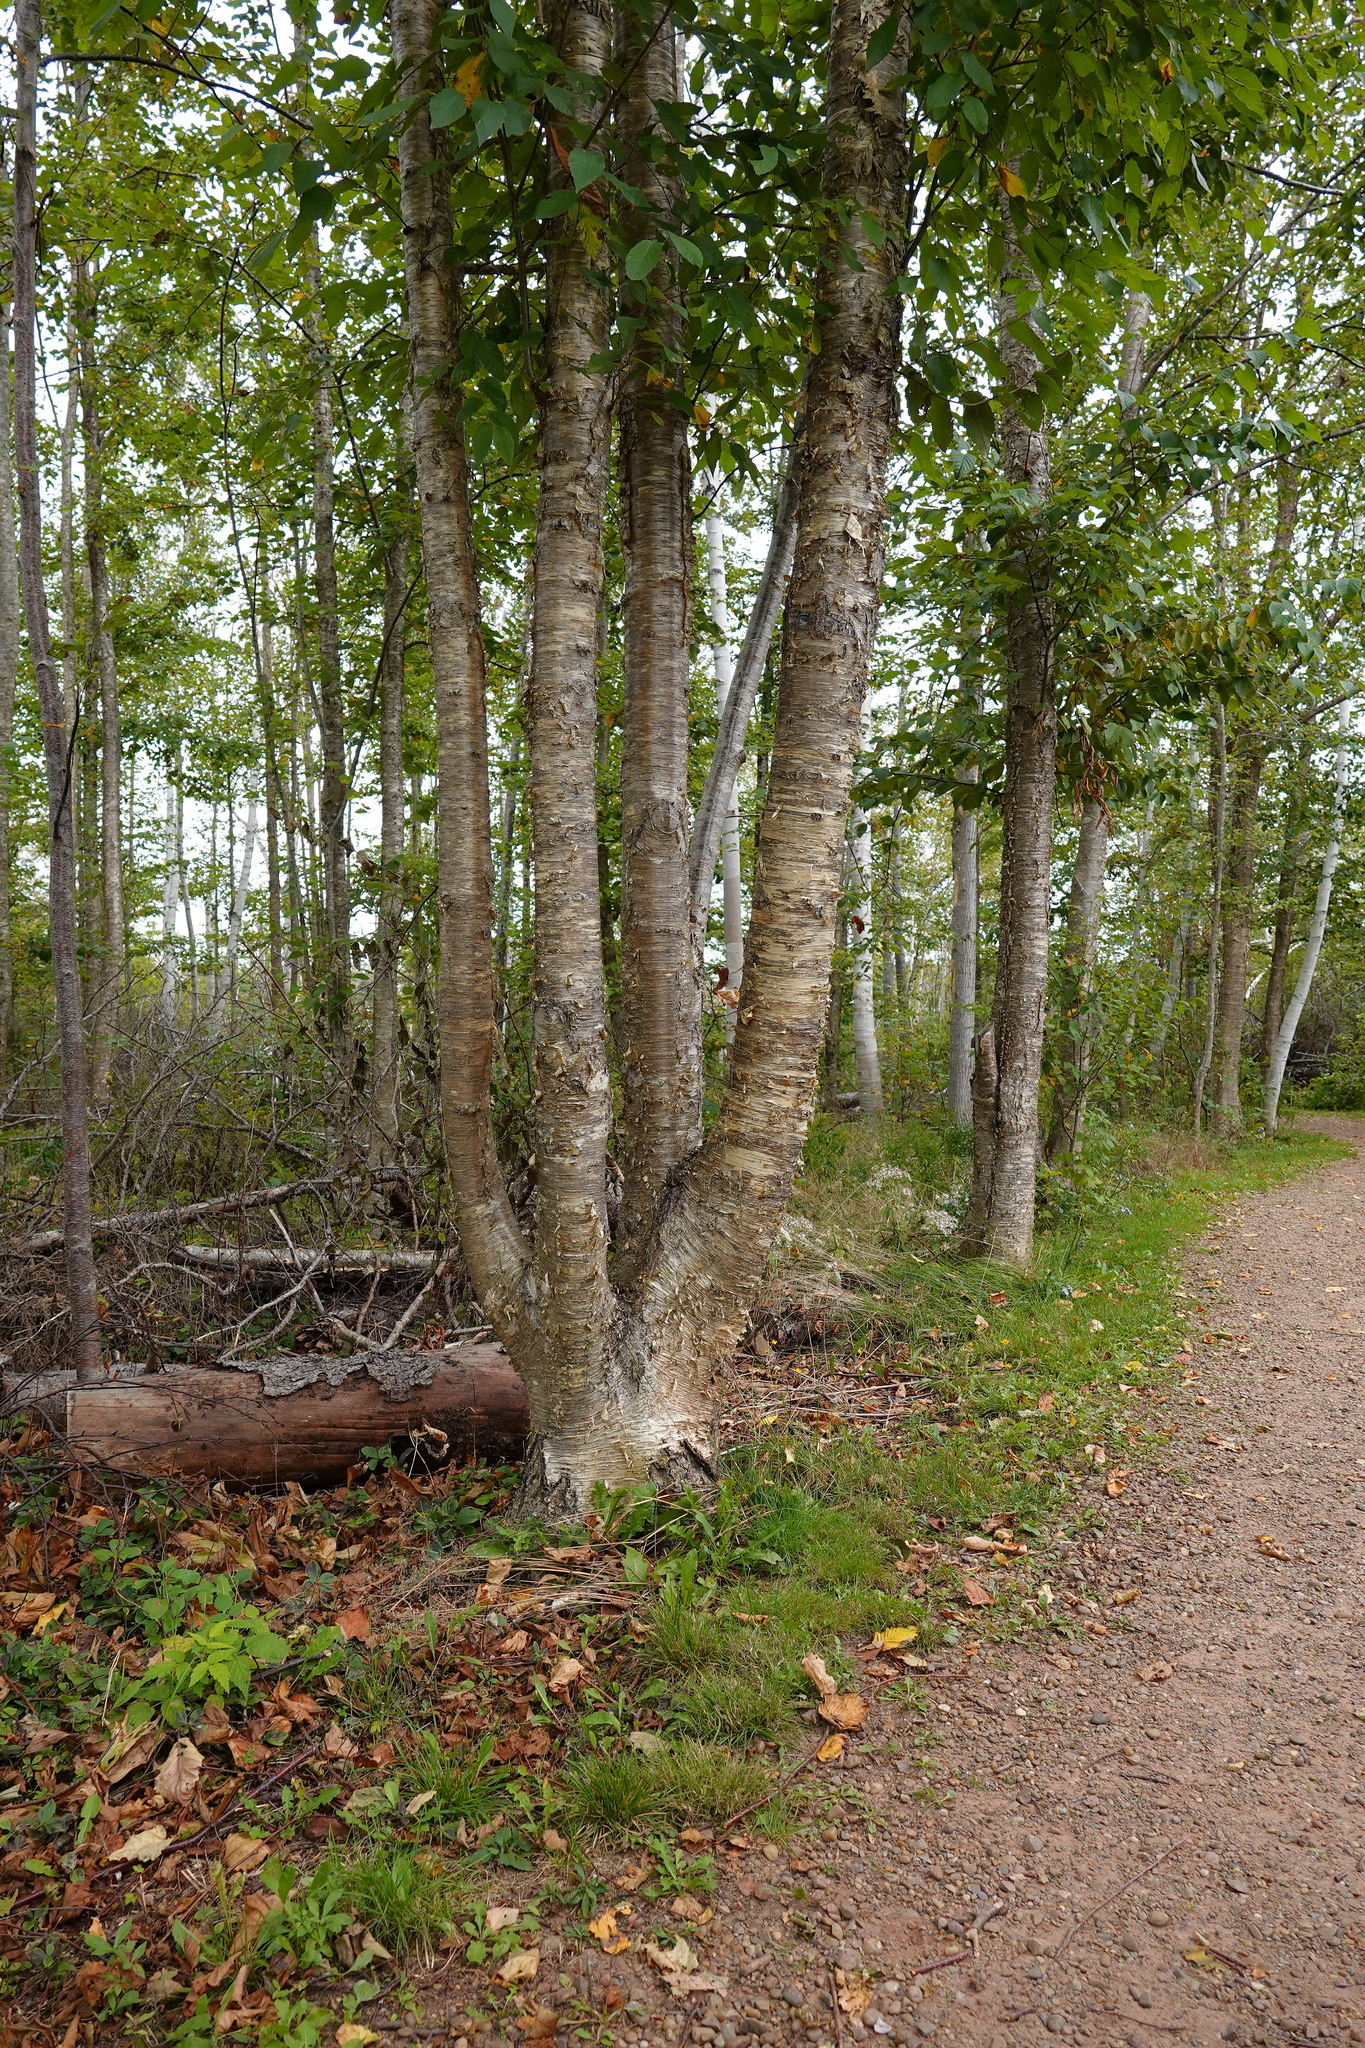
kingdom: Plantae
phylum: Tracheophyta
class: Magnoliopsida
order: Fagales
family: Betulaceae
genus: Betula
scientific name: Betula alleghaniensis
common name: Yellow birch
